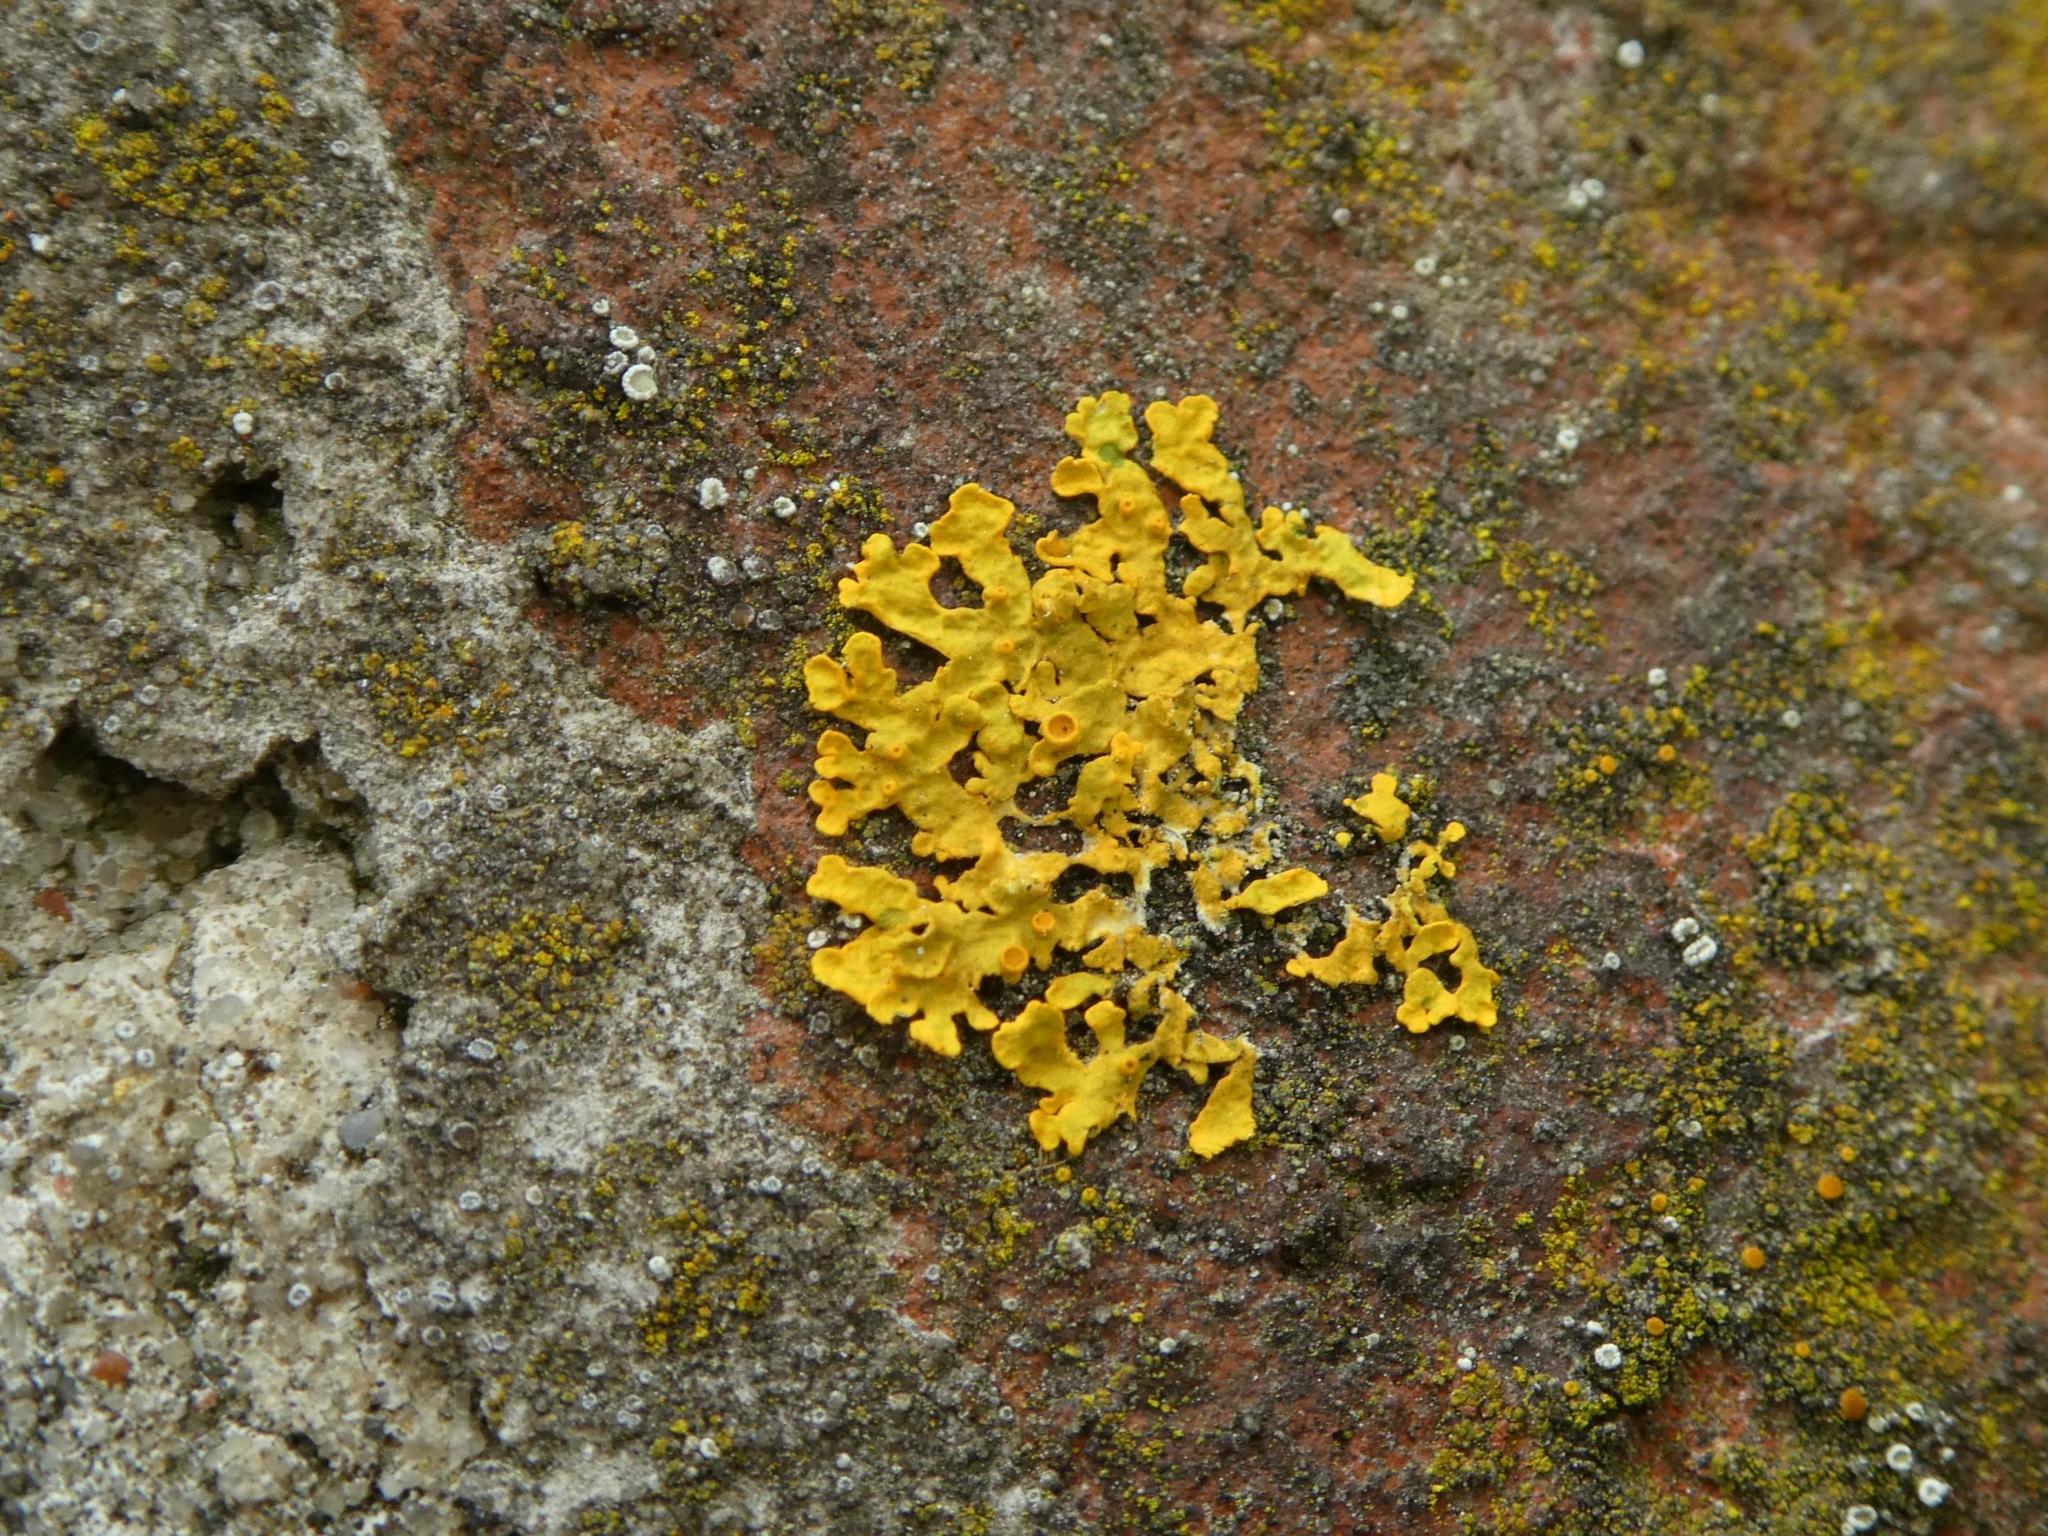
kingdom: Fungi
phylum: Ascomycota
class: Lecanoromycetes
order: Teloschistales
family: Teloschistaceae
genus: Xanthoria
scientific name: Xanthoria parietina
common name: Common orange lichen
